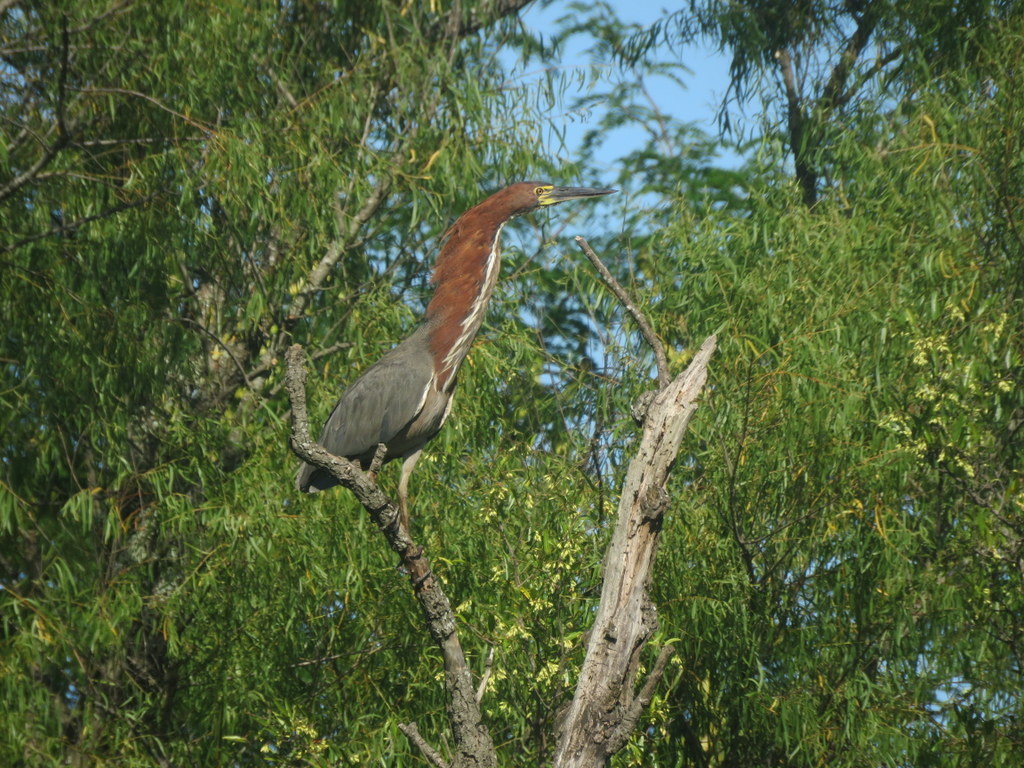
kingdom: Animalia
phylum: Chordata
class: Aves
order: Pelecaniformes
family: Ardeidae
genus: Tigrisoma
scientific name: Tigrisoma lineatum
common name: Rufescent tiger-heron
